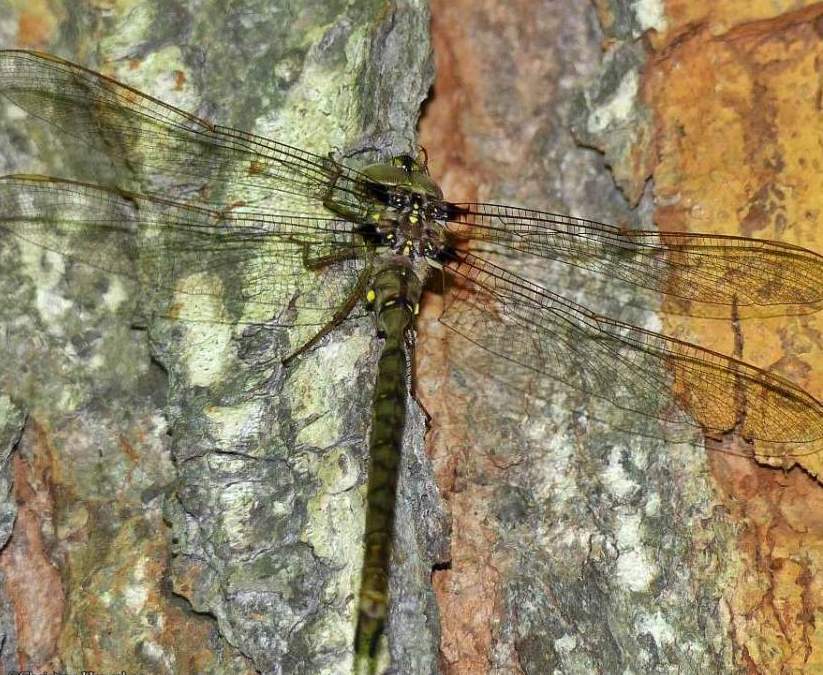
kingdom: Animalia
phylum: Arthropoda
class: Insecta
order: Odonata
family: Aeshnidae
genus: Boyeria
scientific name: Boyeria vinosa
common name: Fawn darner
